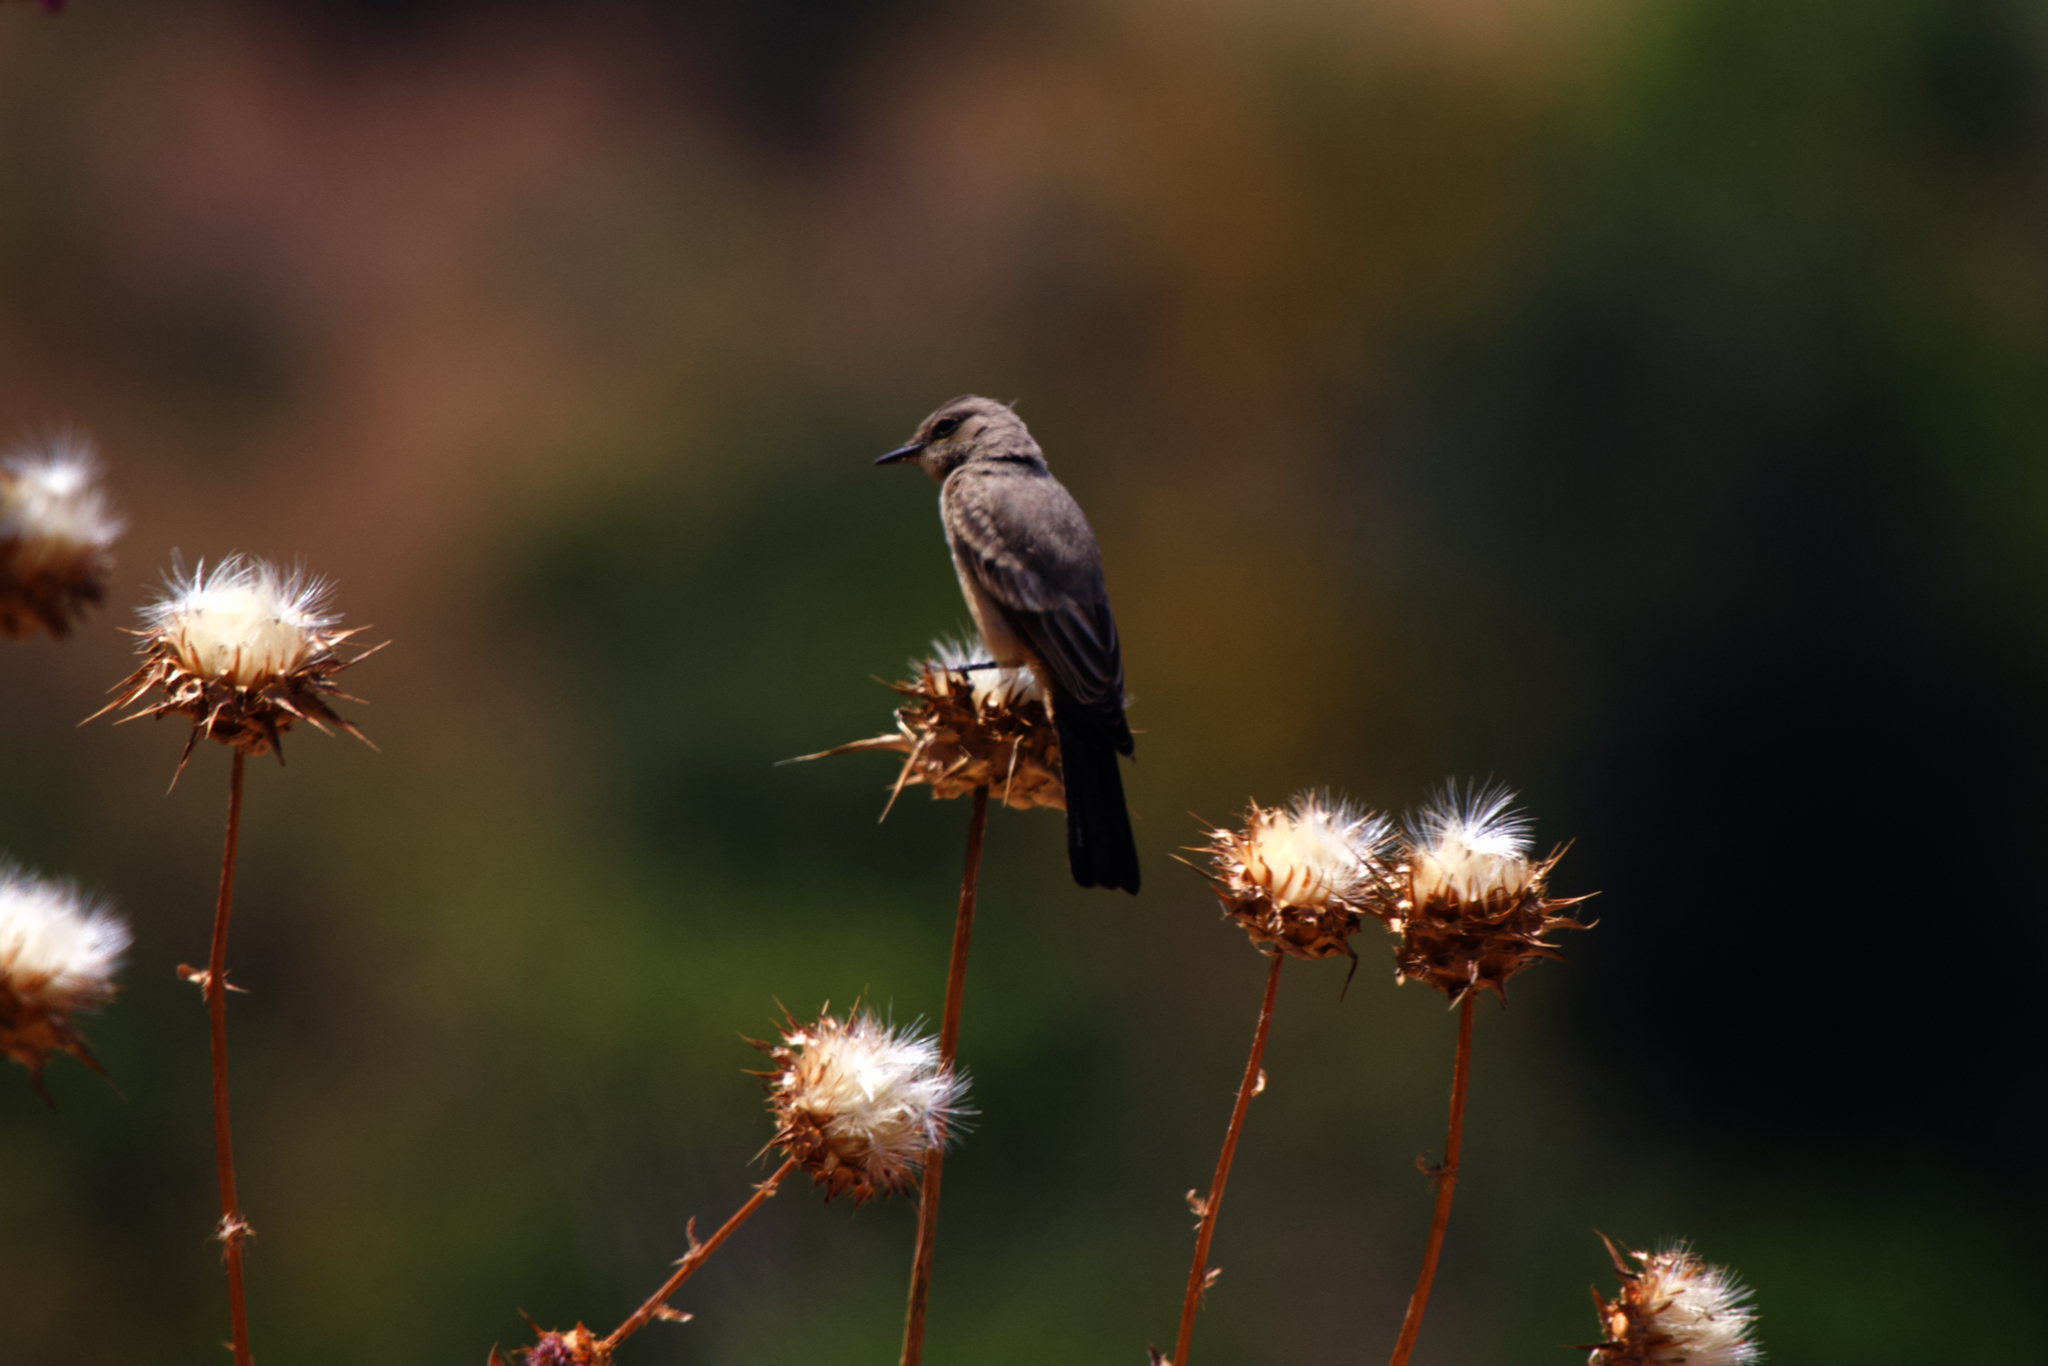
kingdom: Animalia
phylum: Chordata
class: Aves
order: Passeriformes
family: Tyrannidae
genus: Sayornis
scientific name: Sayornis saya
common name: Say's phoebe
